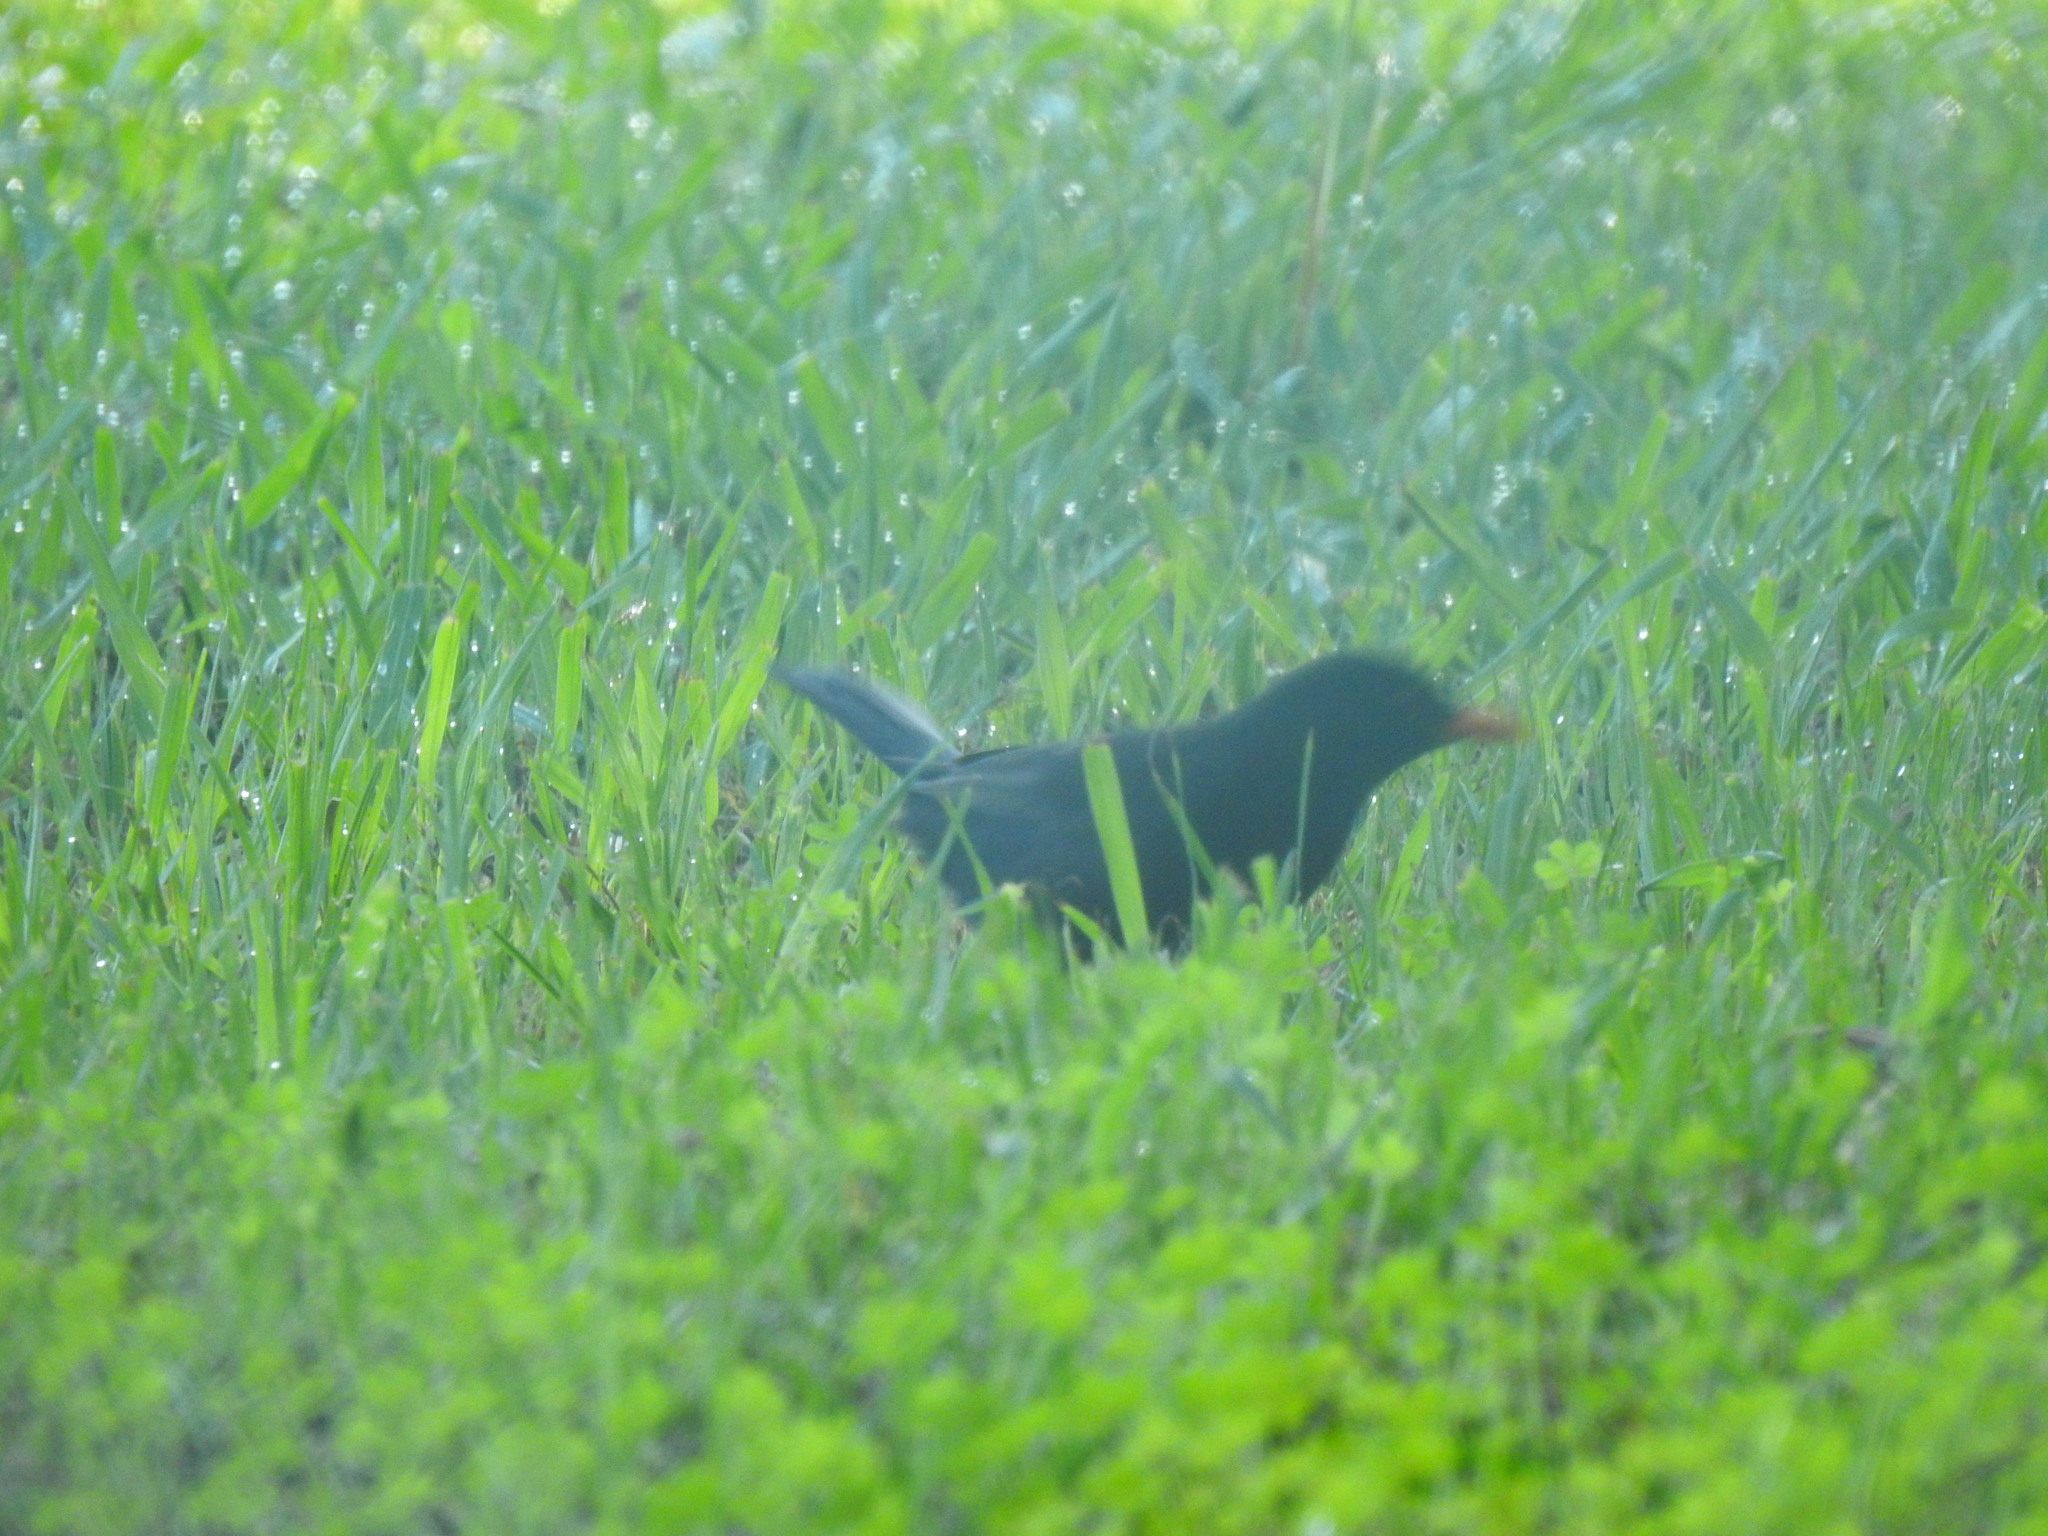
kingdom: Animalia
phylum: Chordata
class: Aves
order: Passeriformes
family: Turdidae
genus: Turdus
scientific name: Turdus merula
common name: Common blackbird
